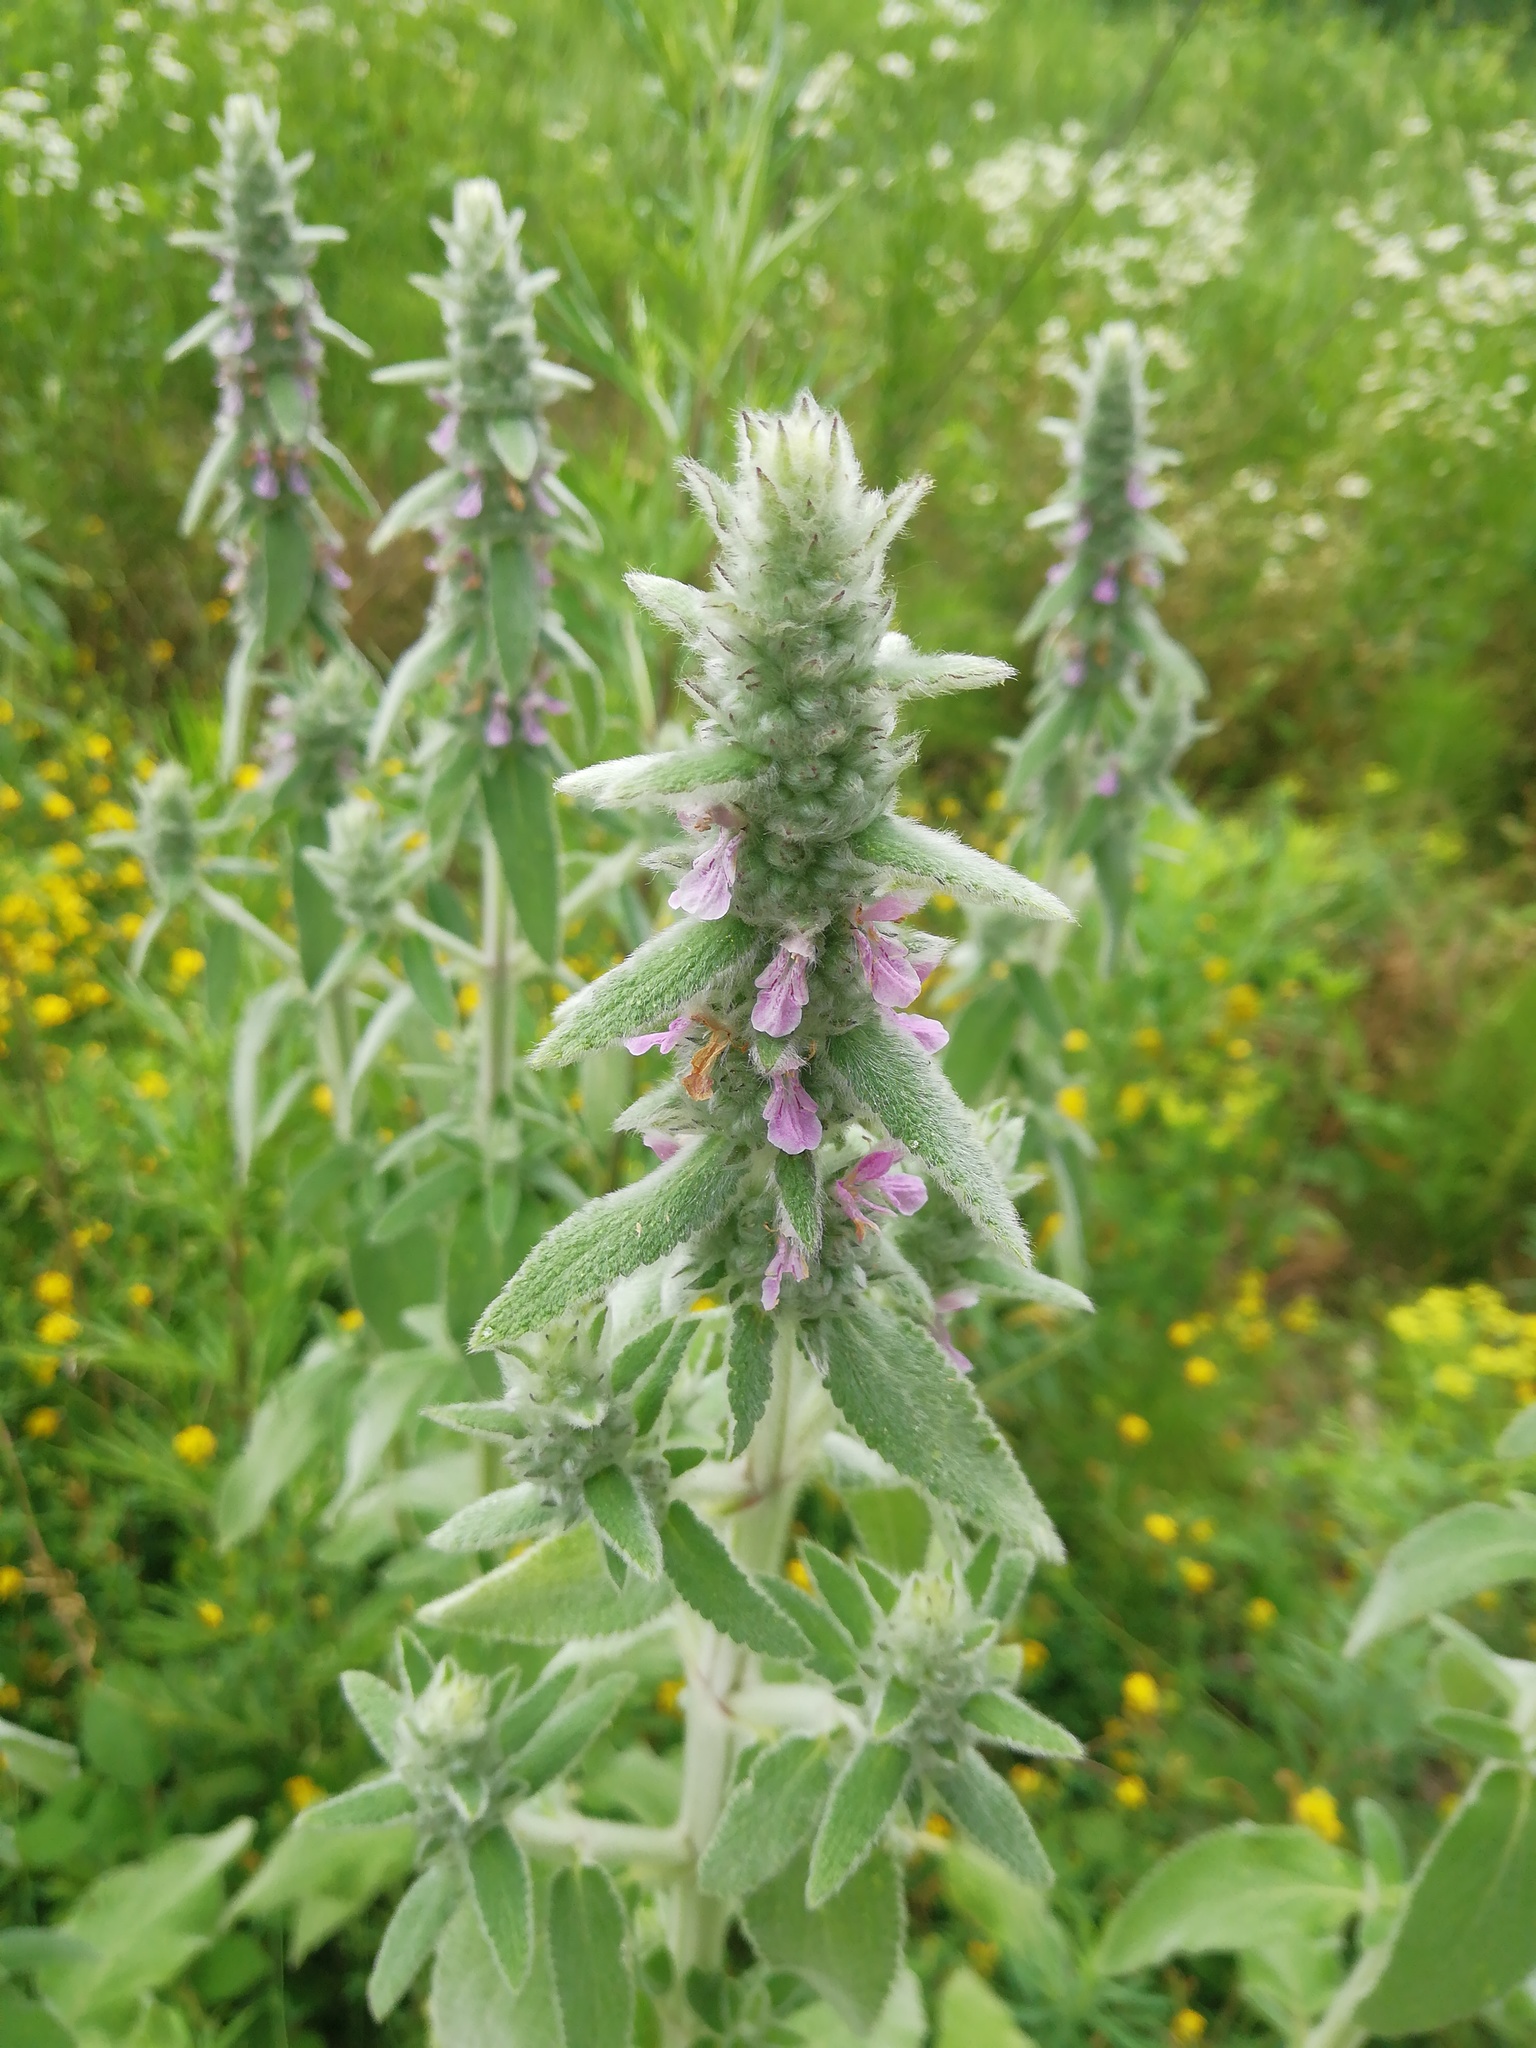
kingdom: Plantae
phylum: Tracheophyta
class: Magnoliopsida
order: Lamiales
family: Lamiaceae
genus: Stachys
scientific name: Stachys germanica
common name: Downy woundwort
